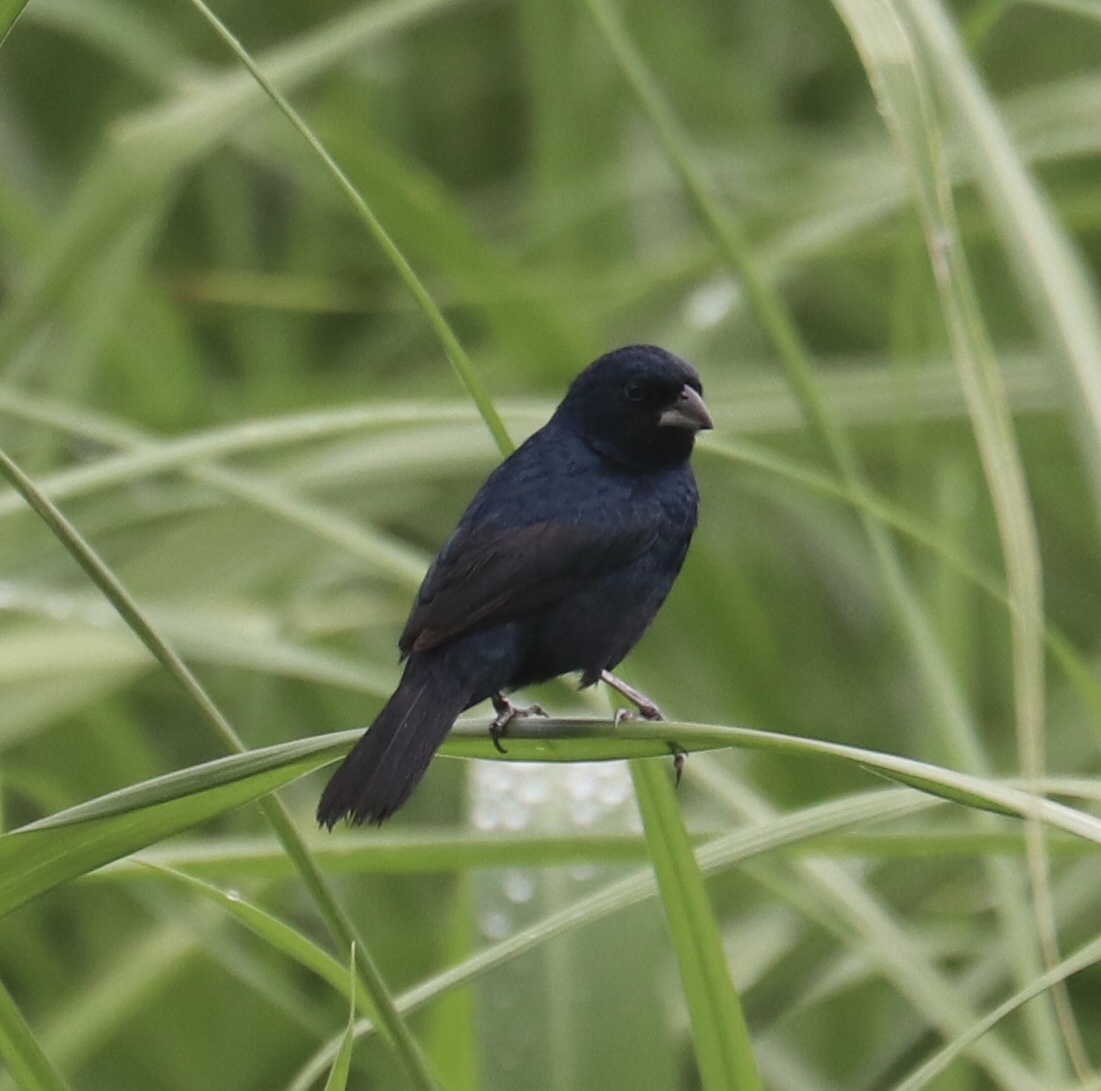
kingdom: Animalia
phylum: Chordata
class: Aves
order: Passeriformes
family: Thraupidae
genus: Volatinia
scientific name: Volatinia jacarina
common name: Blue-black grassquit
